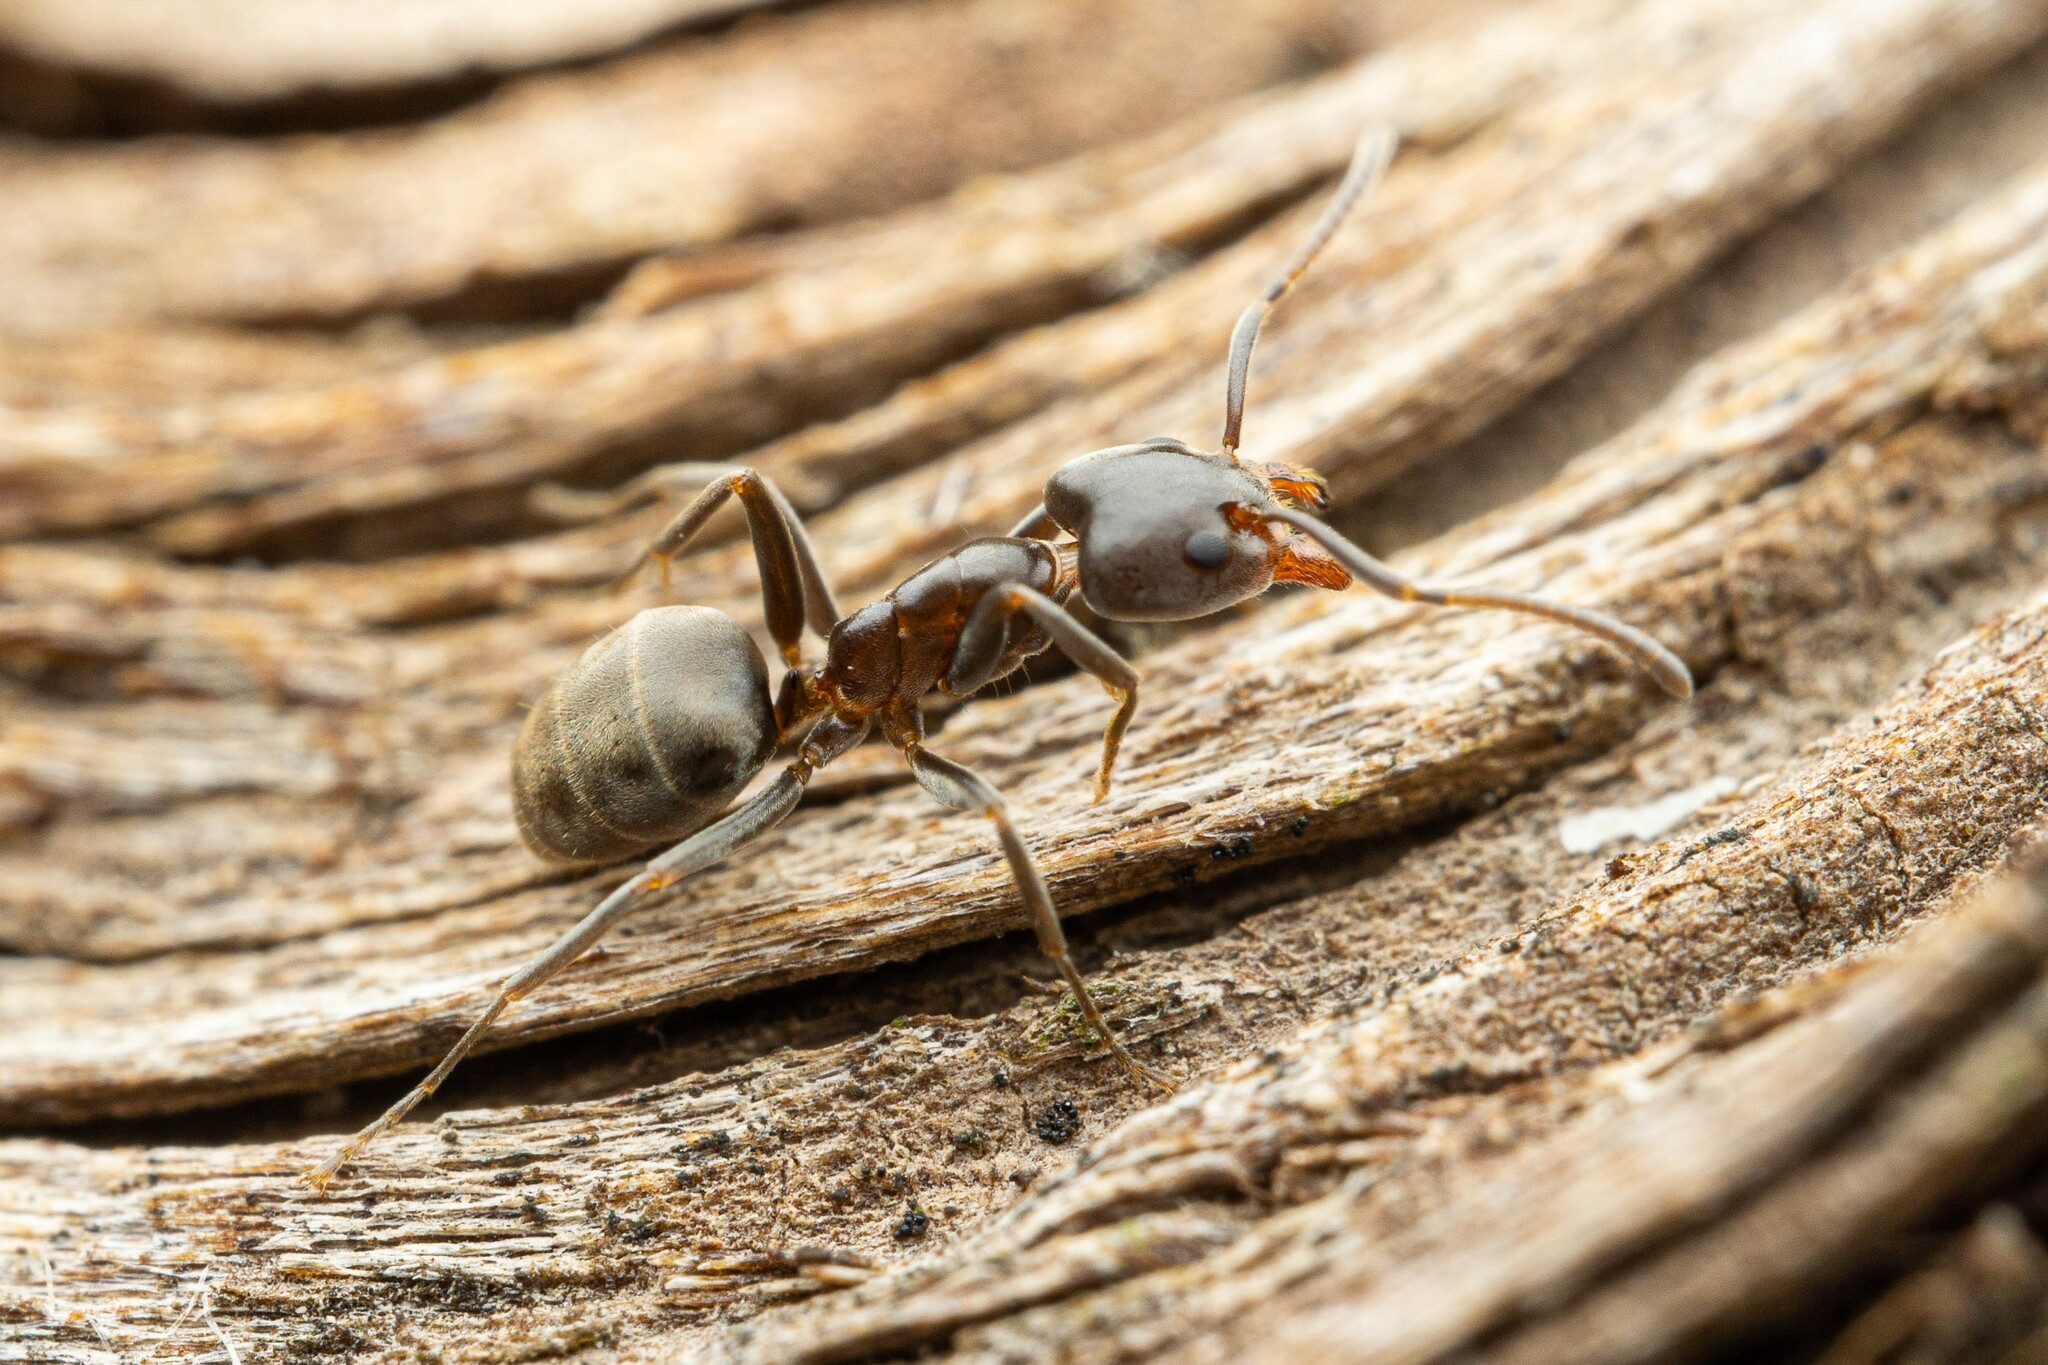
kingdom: Animalia
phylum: Arthropoda
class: Insecta
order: Hymenoptera
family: Formicidae
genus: Liometopum
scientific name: Liometopum luctuosum
